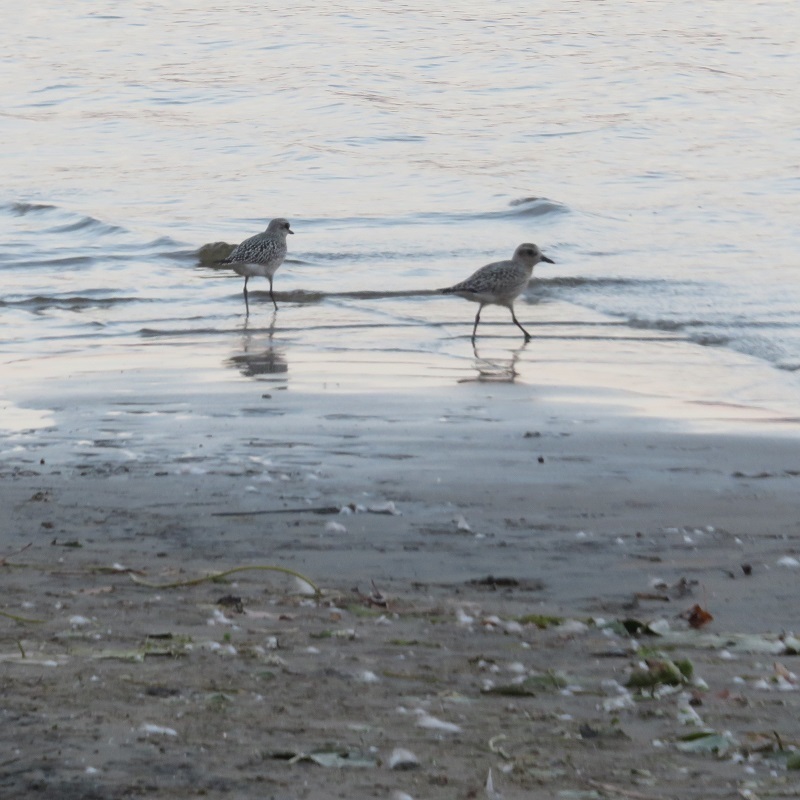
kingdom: Animalia
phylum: Chordata
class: Aves
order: Charadriiformes
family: Charadriidae
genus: Pluvialis
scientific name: Pluvialis squatarola
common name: Grey plover
